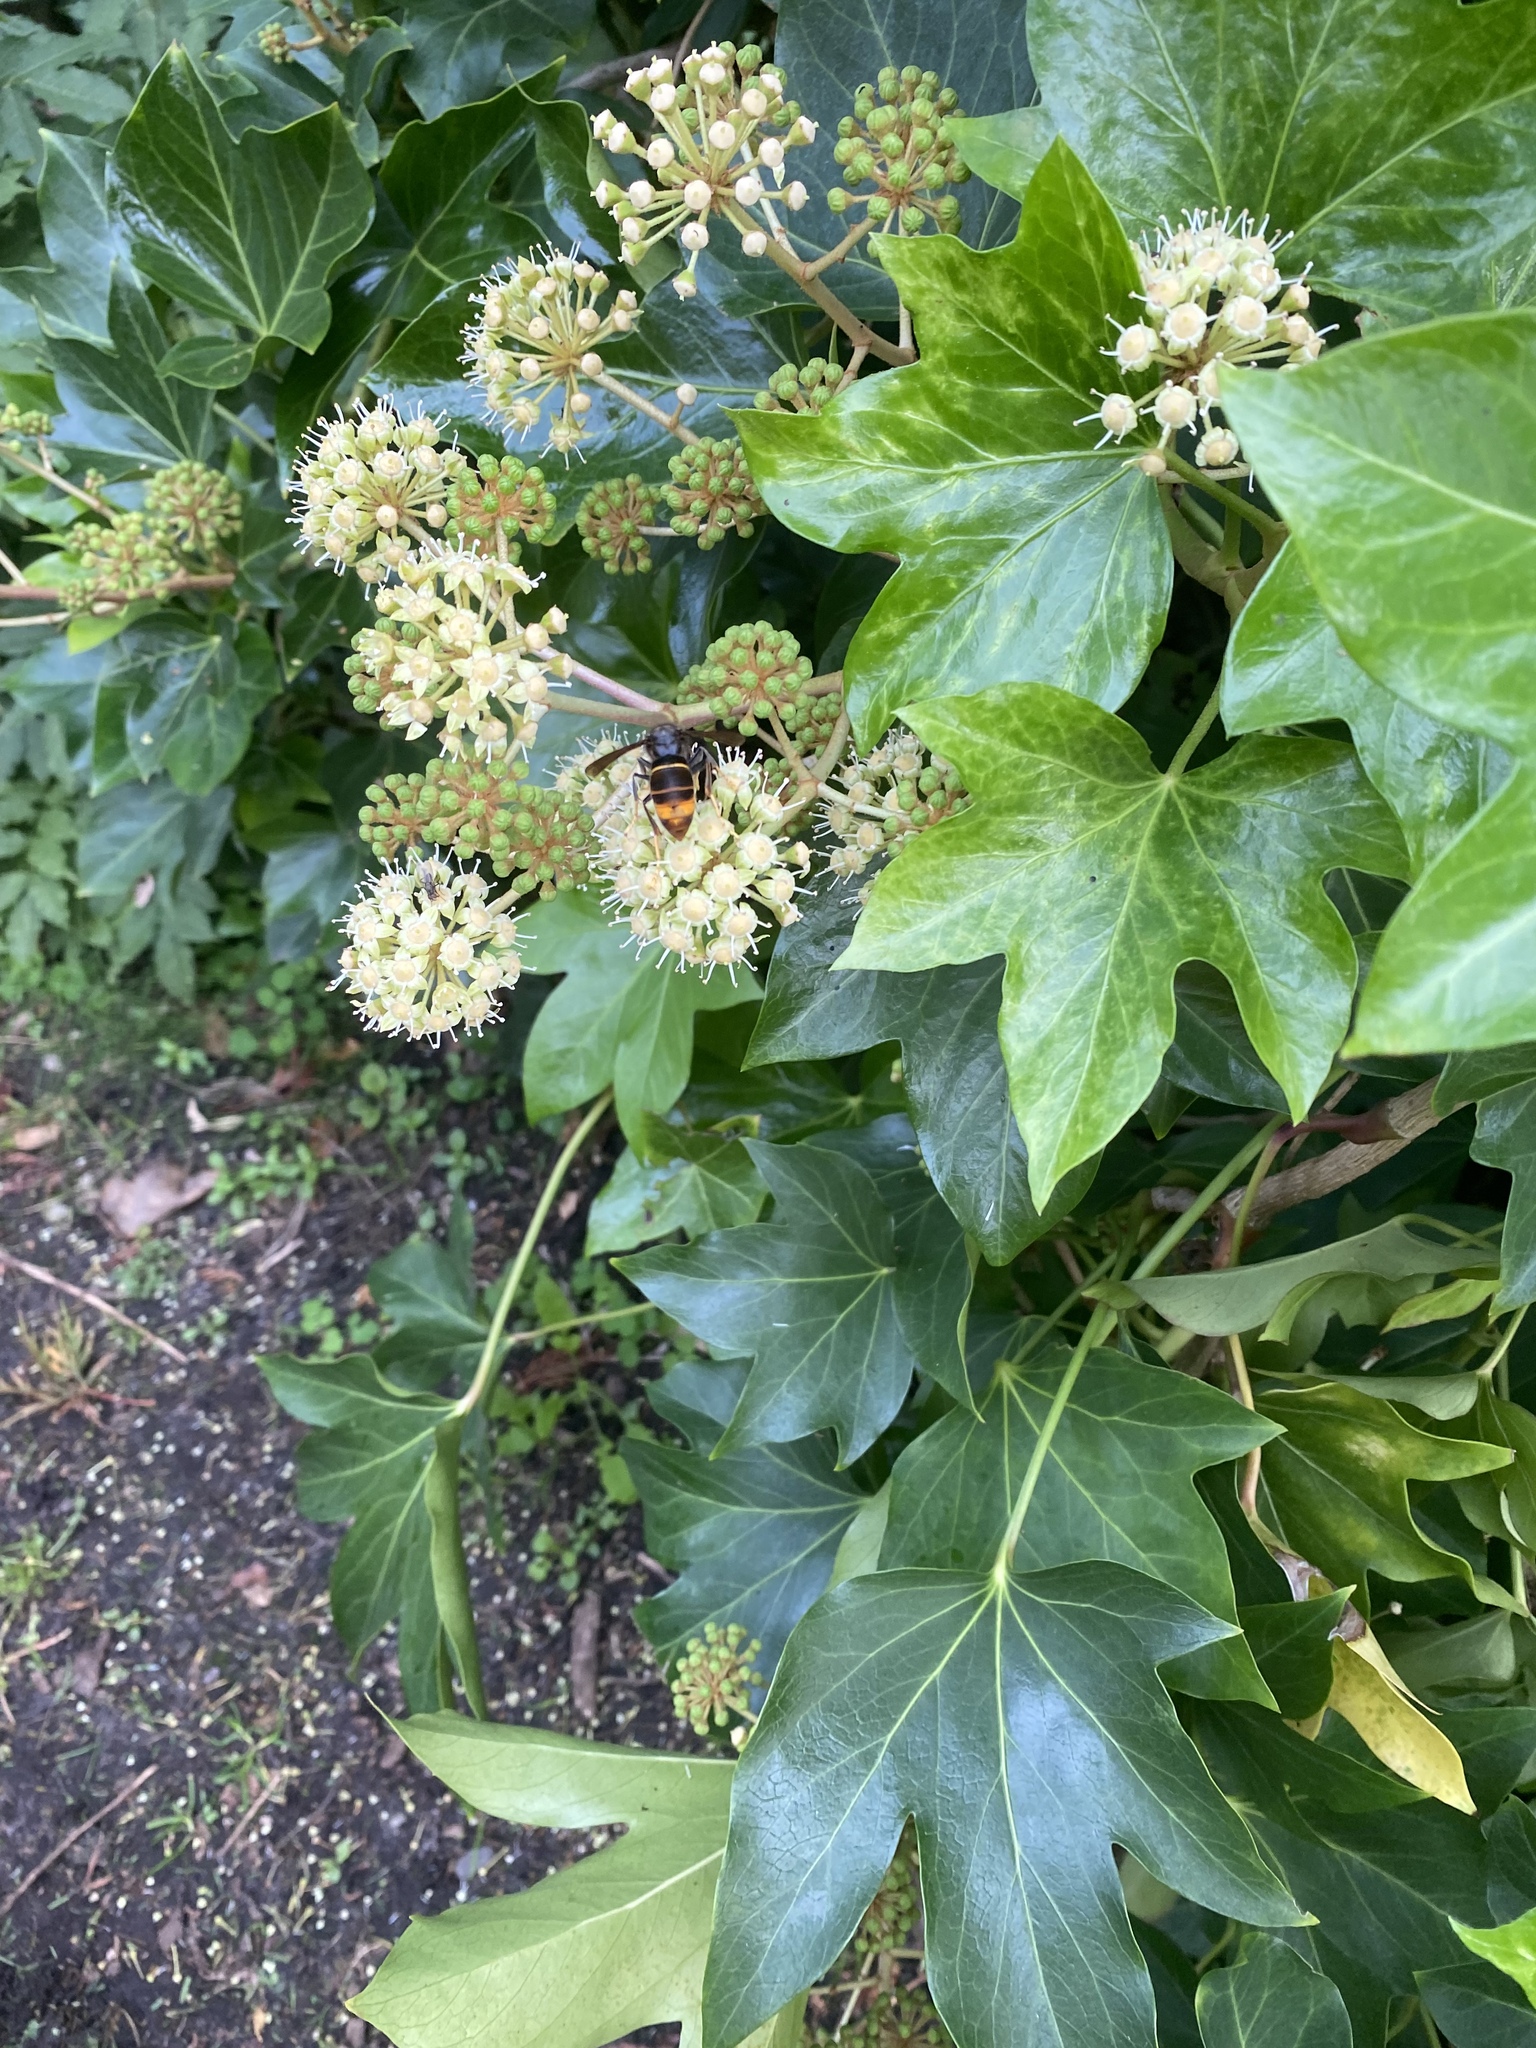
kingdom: Animalia
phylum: Arthropoda
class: Insecta
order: Hymenoptera
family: Vespidae
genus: Vespa
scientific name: Vespa velutina
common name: Asian hornet
